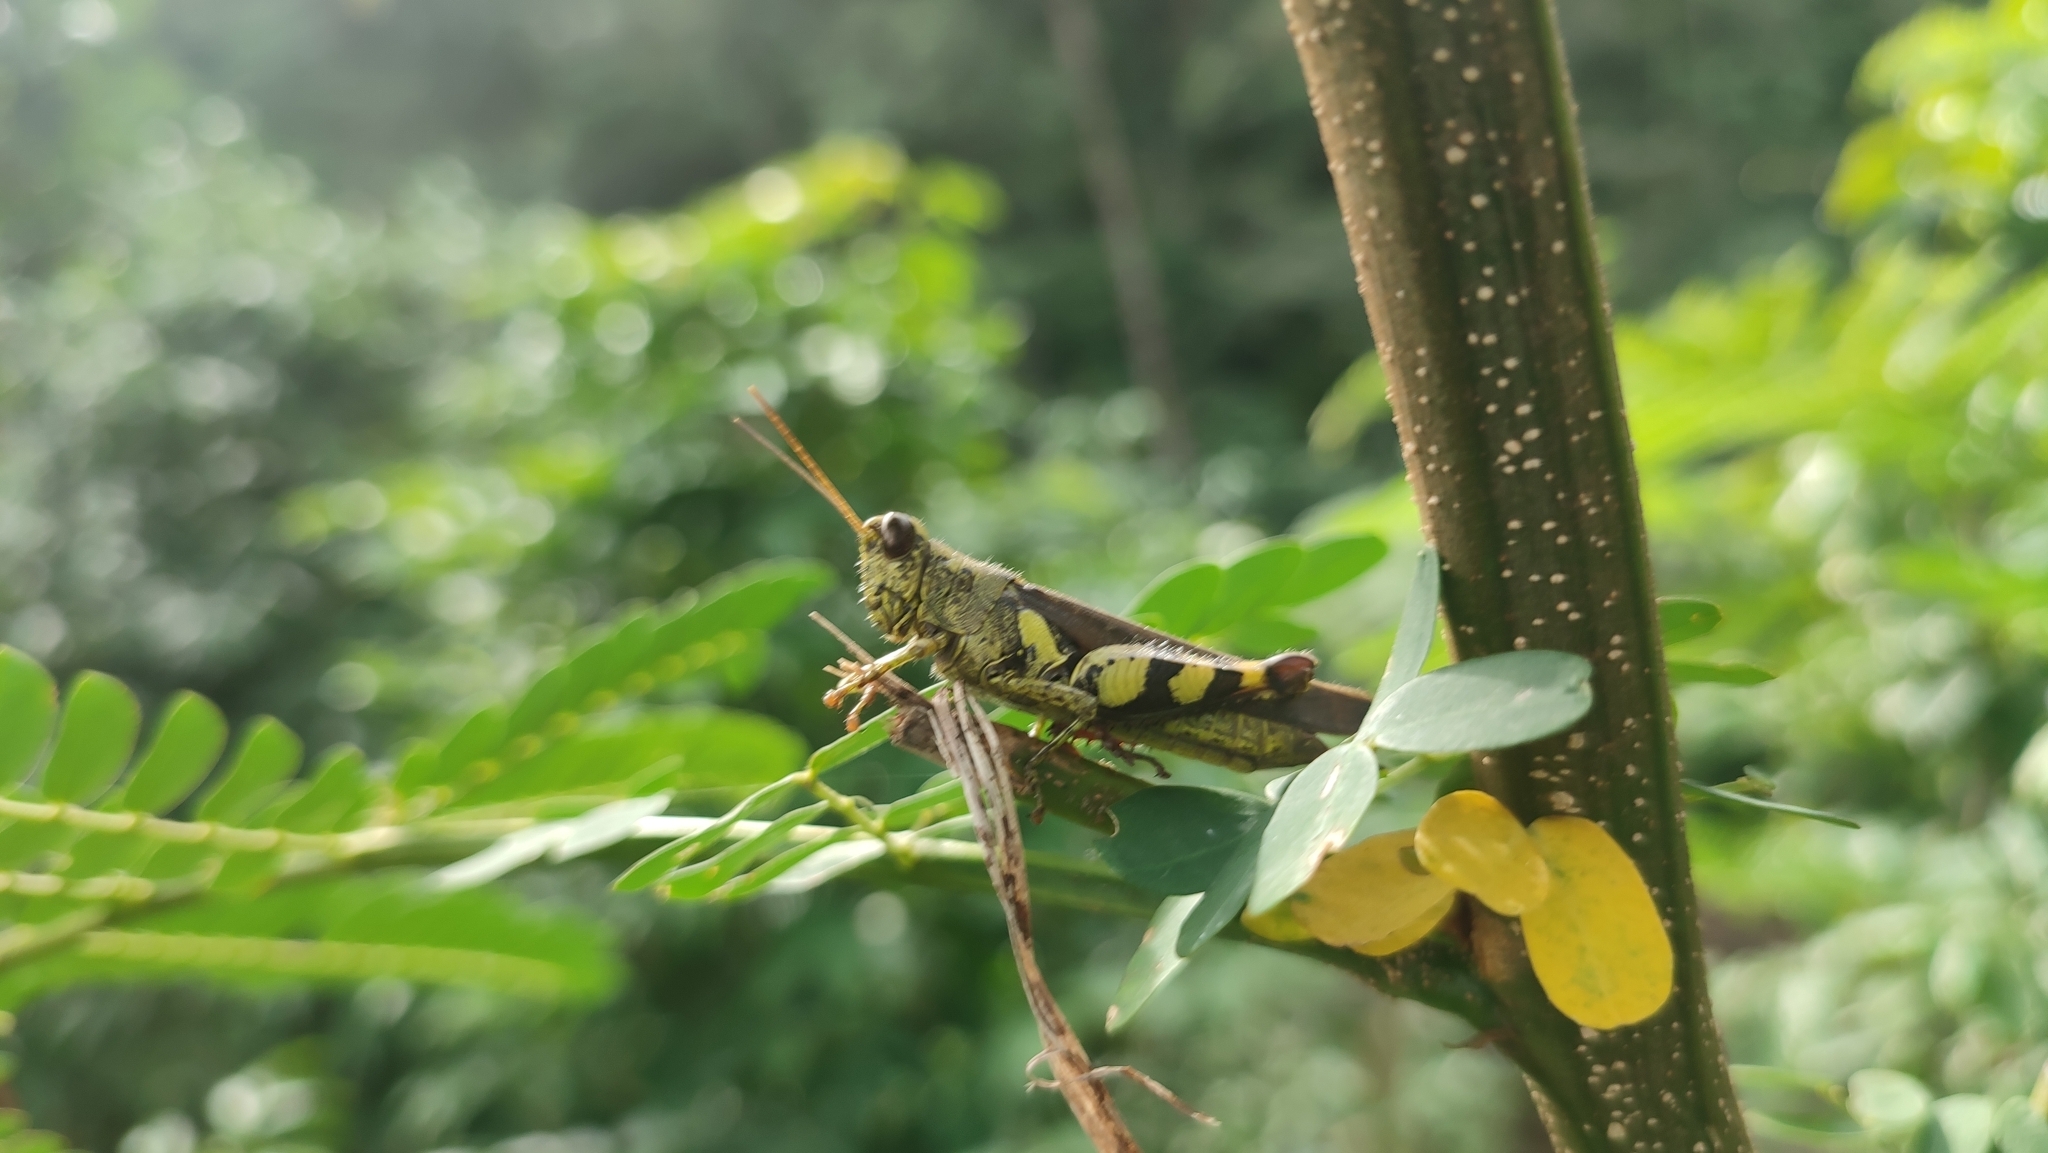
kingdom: Animalia
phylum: Arthropoda
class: Insecta
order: Orthoptera
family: Acrididae
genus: Xenocatantops
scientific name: Xenocatantops humile
